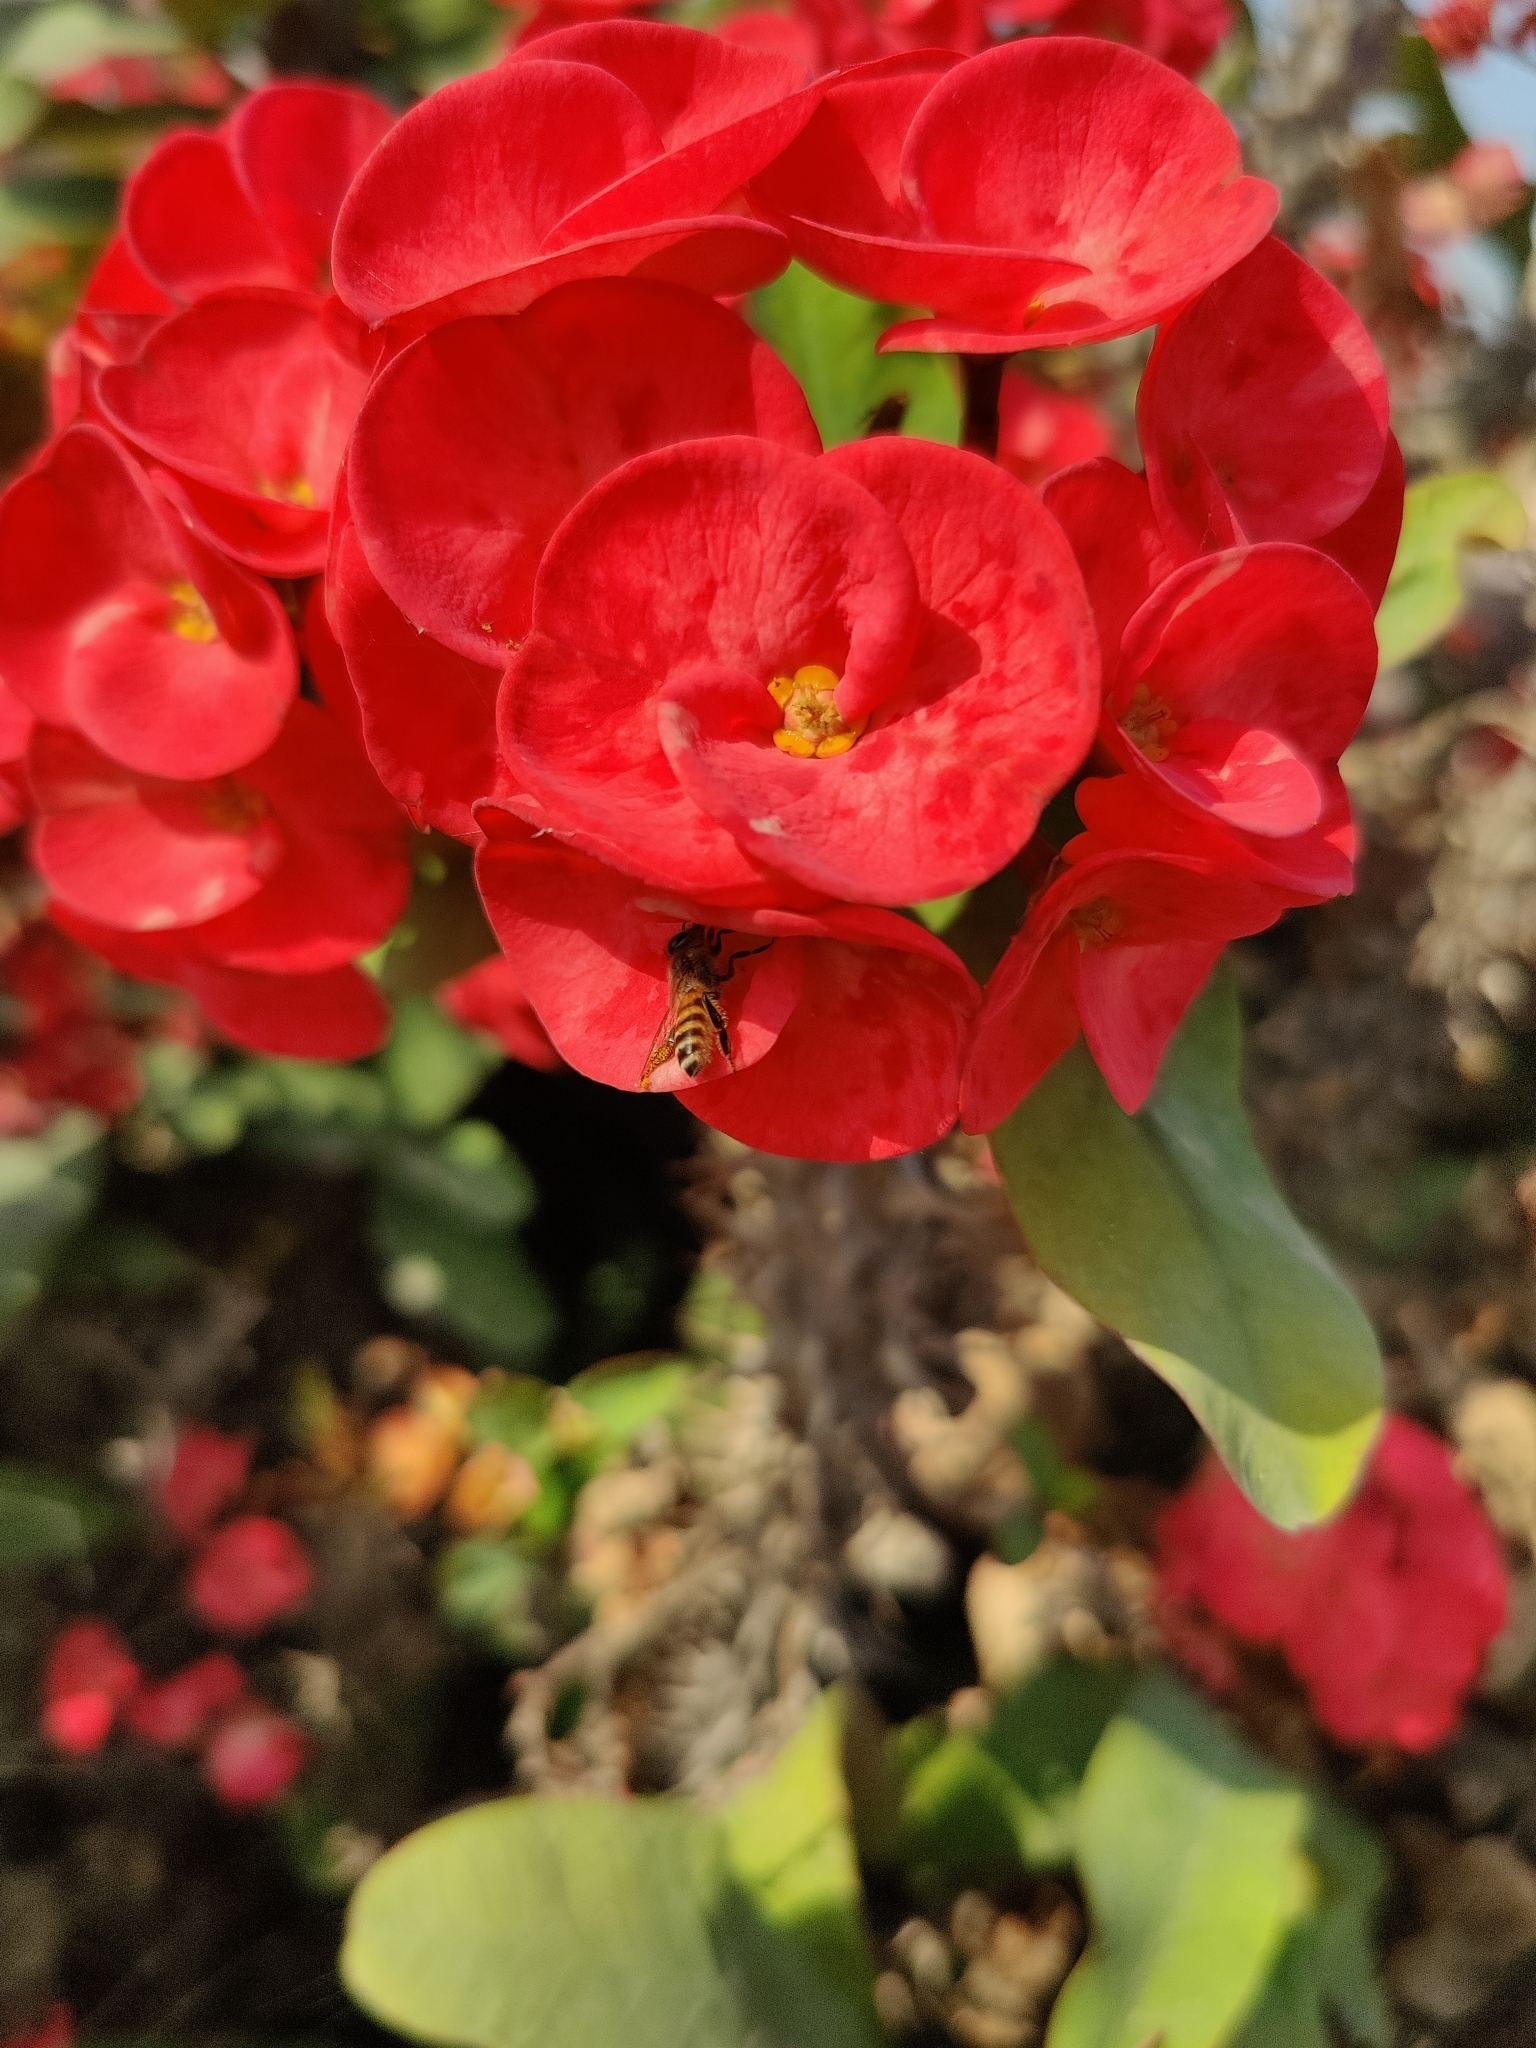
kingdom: Animalia
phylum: Arthropoda
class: Insecta
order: Hymenoptera
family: Apidae
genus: Apis
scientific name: Apis cerana
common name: Honey bee
